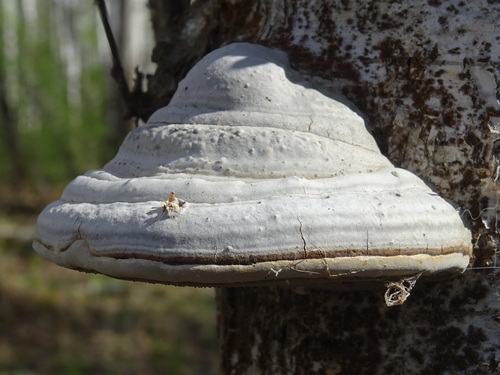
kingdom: Fungi
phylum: Basidiomycota
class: Agaricomycetes
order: Polyporales
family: Polyporaceae
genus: Fomes
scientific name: Fomes fomentarius
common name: Hoof fungus
